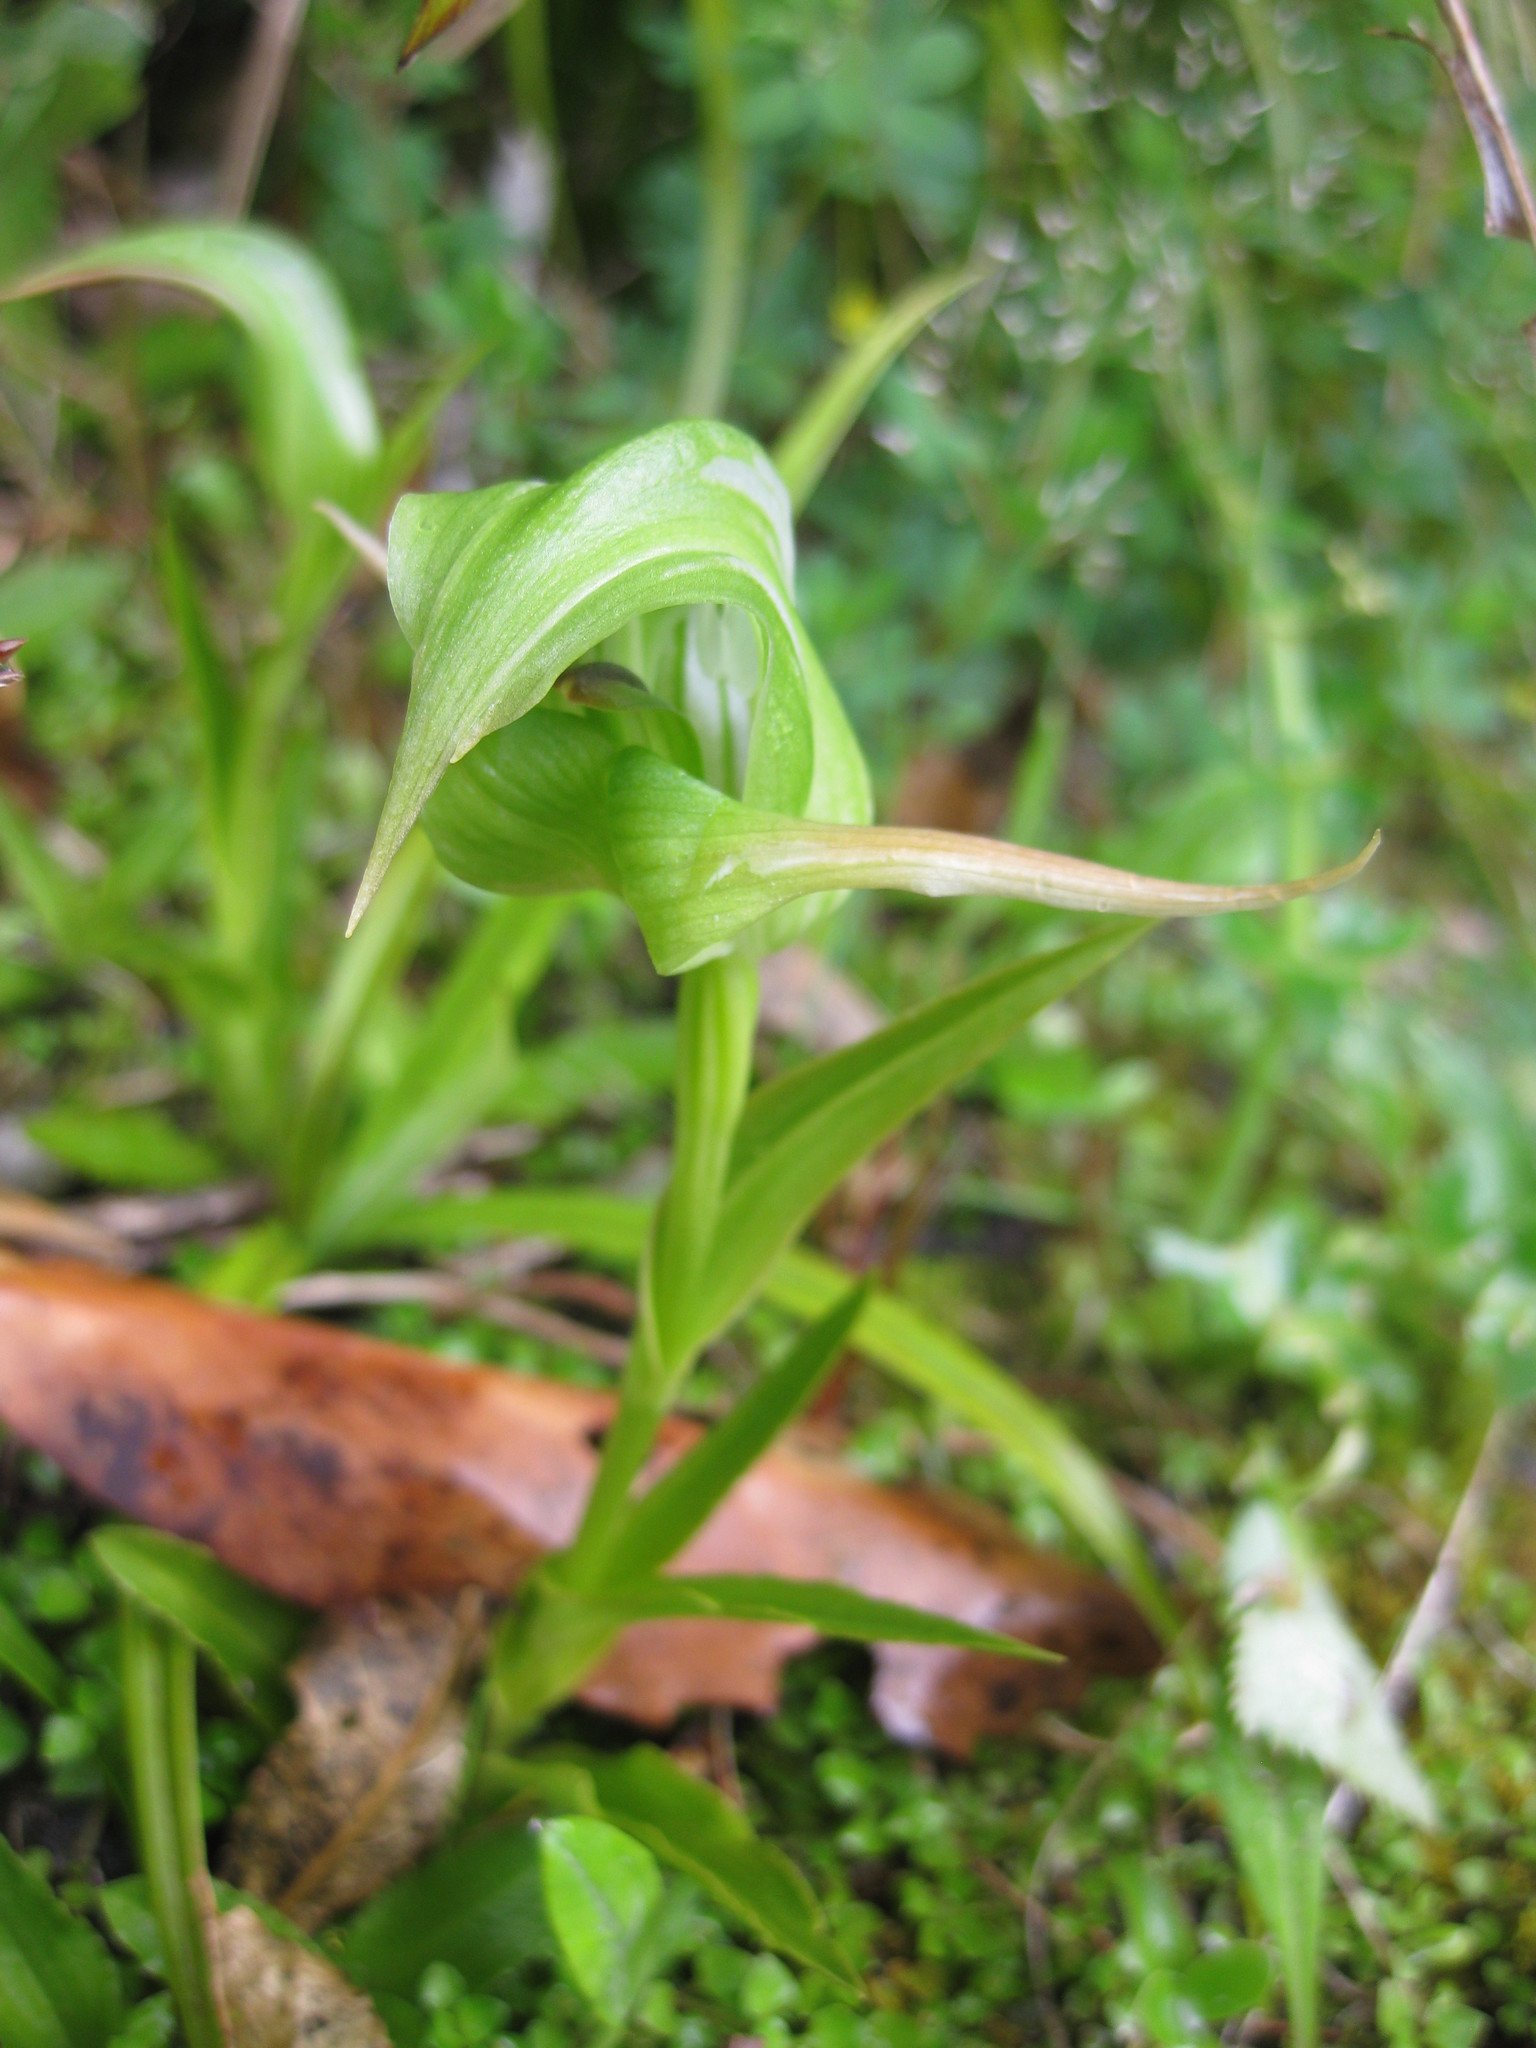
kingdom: Plantae
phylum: Tracheophyta
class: Liliopsida
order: Asparagales
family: Orchidaceae
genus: Pterostylis
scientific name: Pterostylis australis
